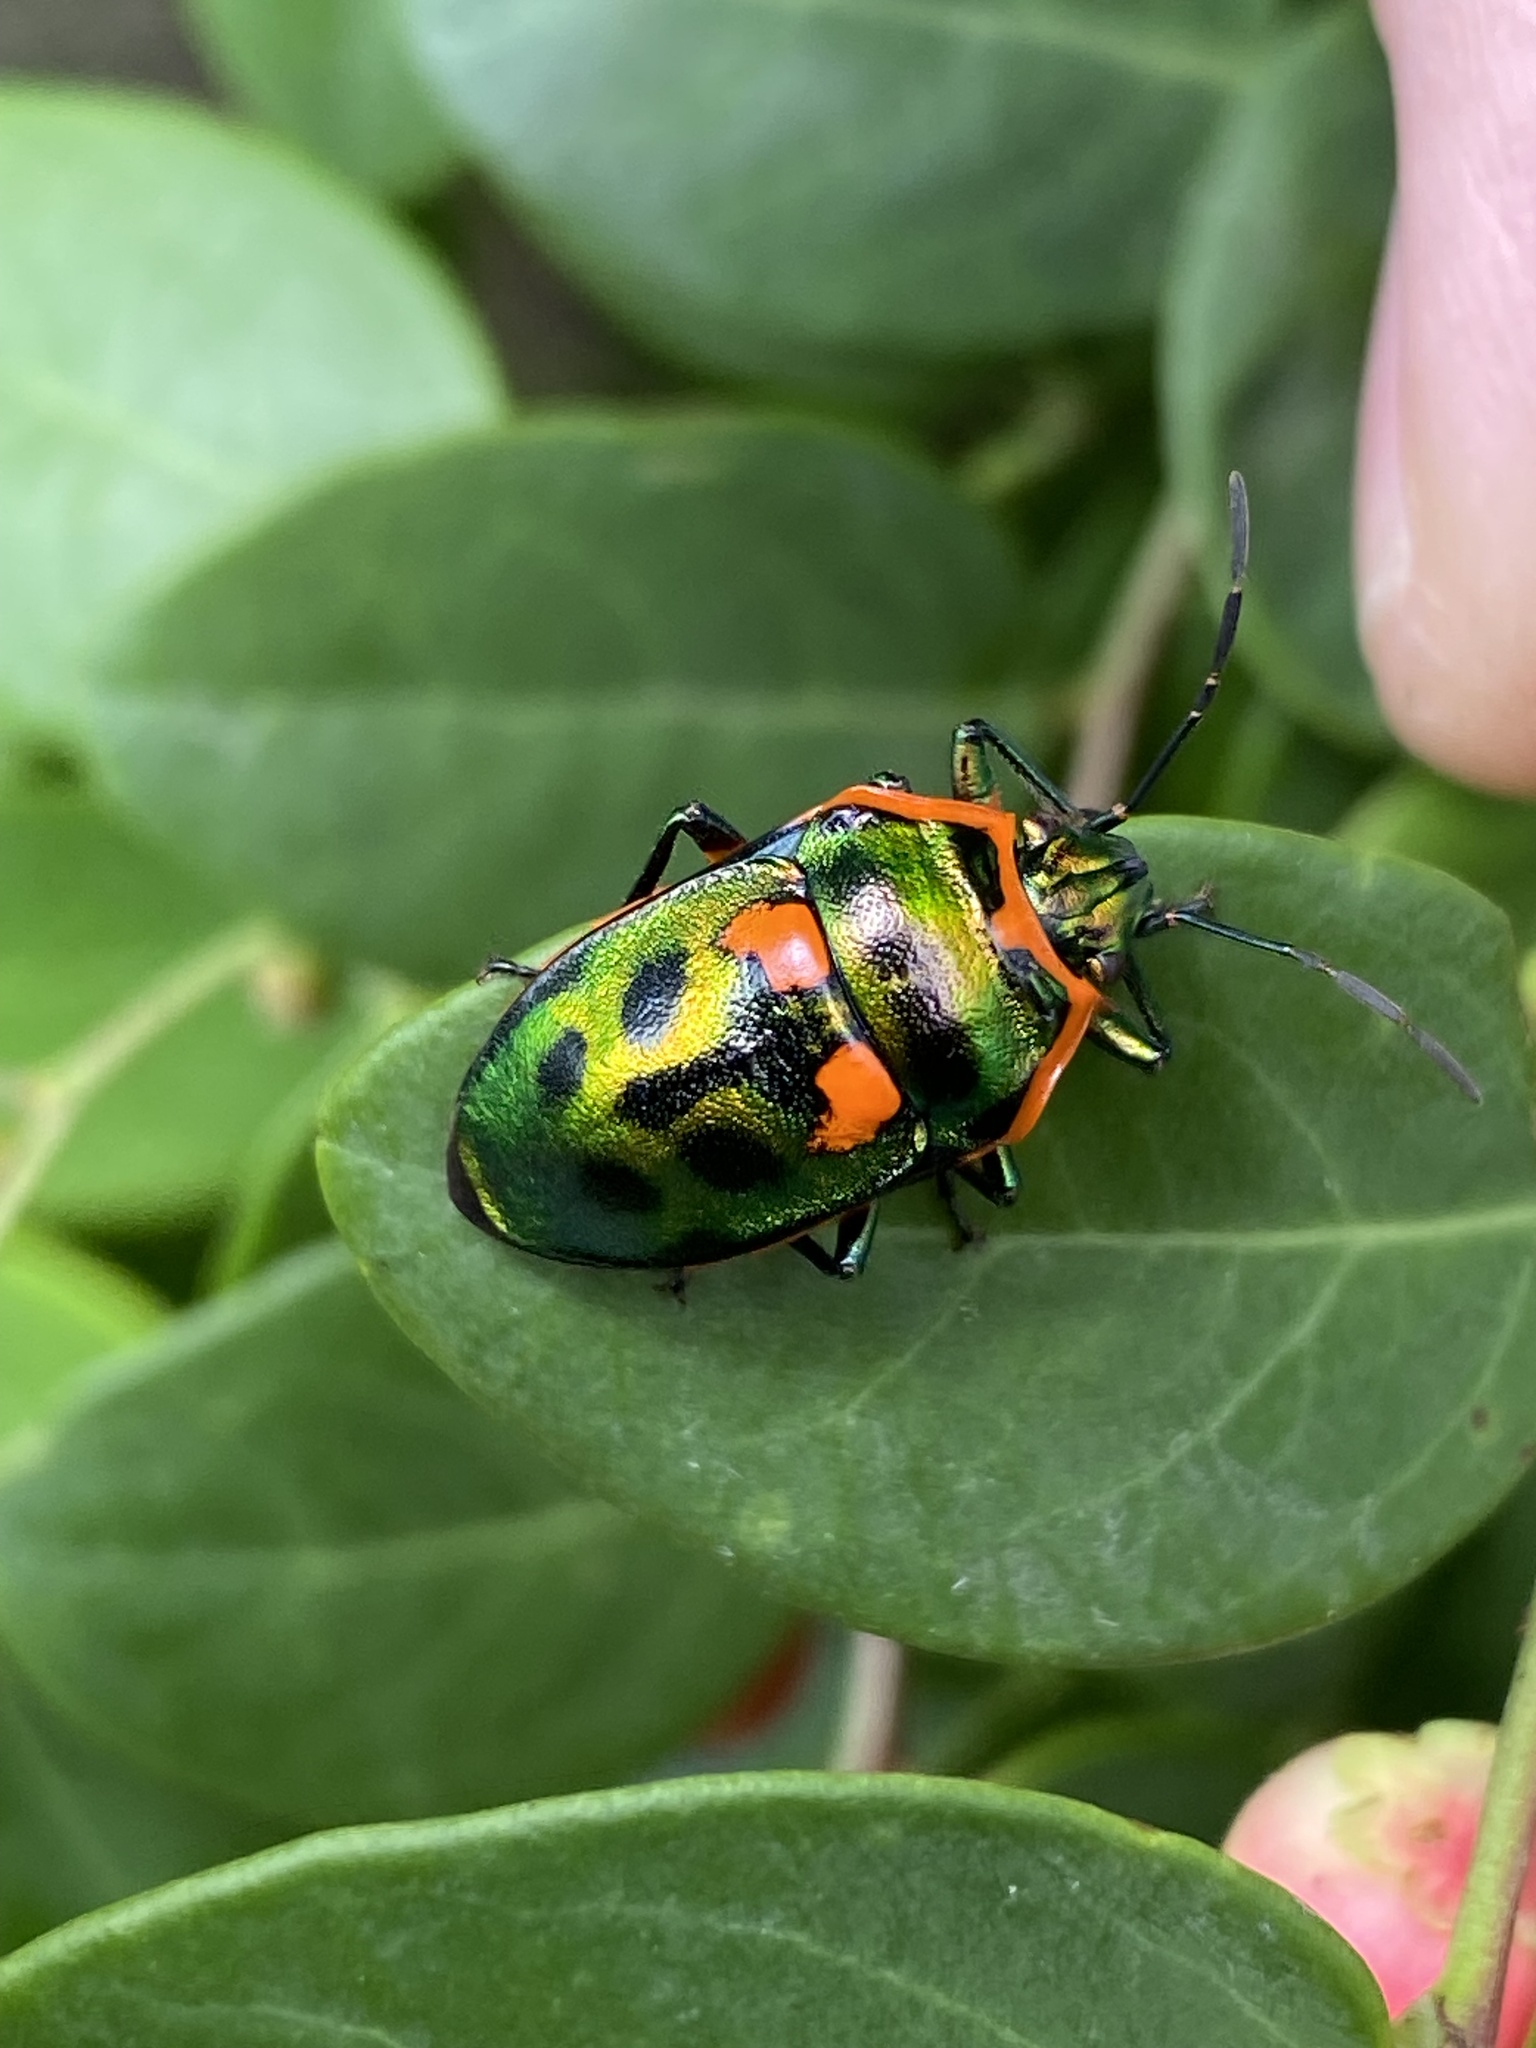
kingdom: Animalia
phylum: Arthropoda
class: Insecta
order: Hemiptera
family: Scutelleridae
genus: Scutiphora
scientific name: Scutiphora pedicellata
